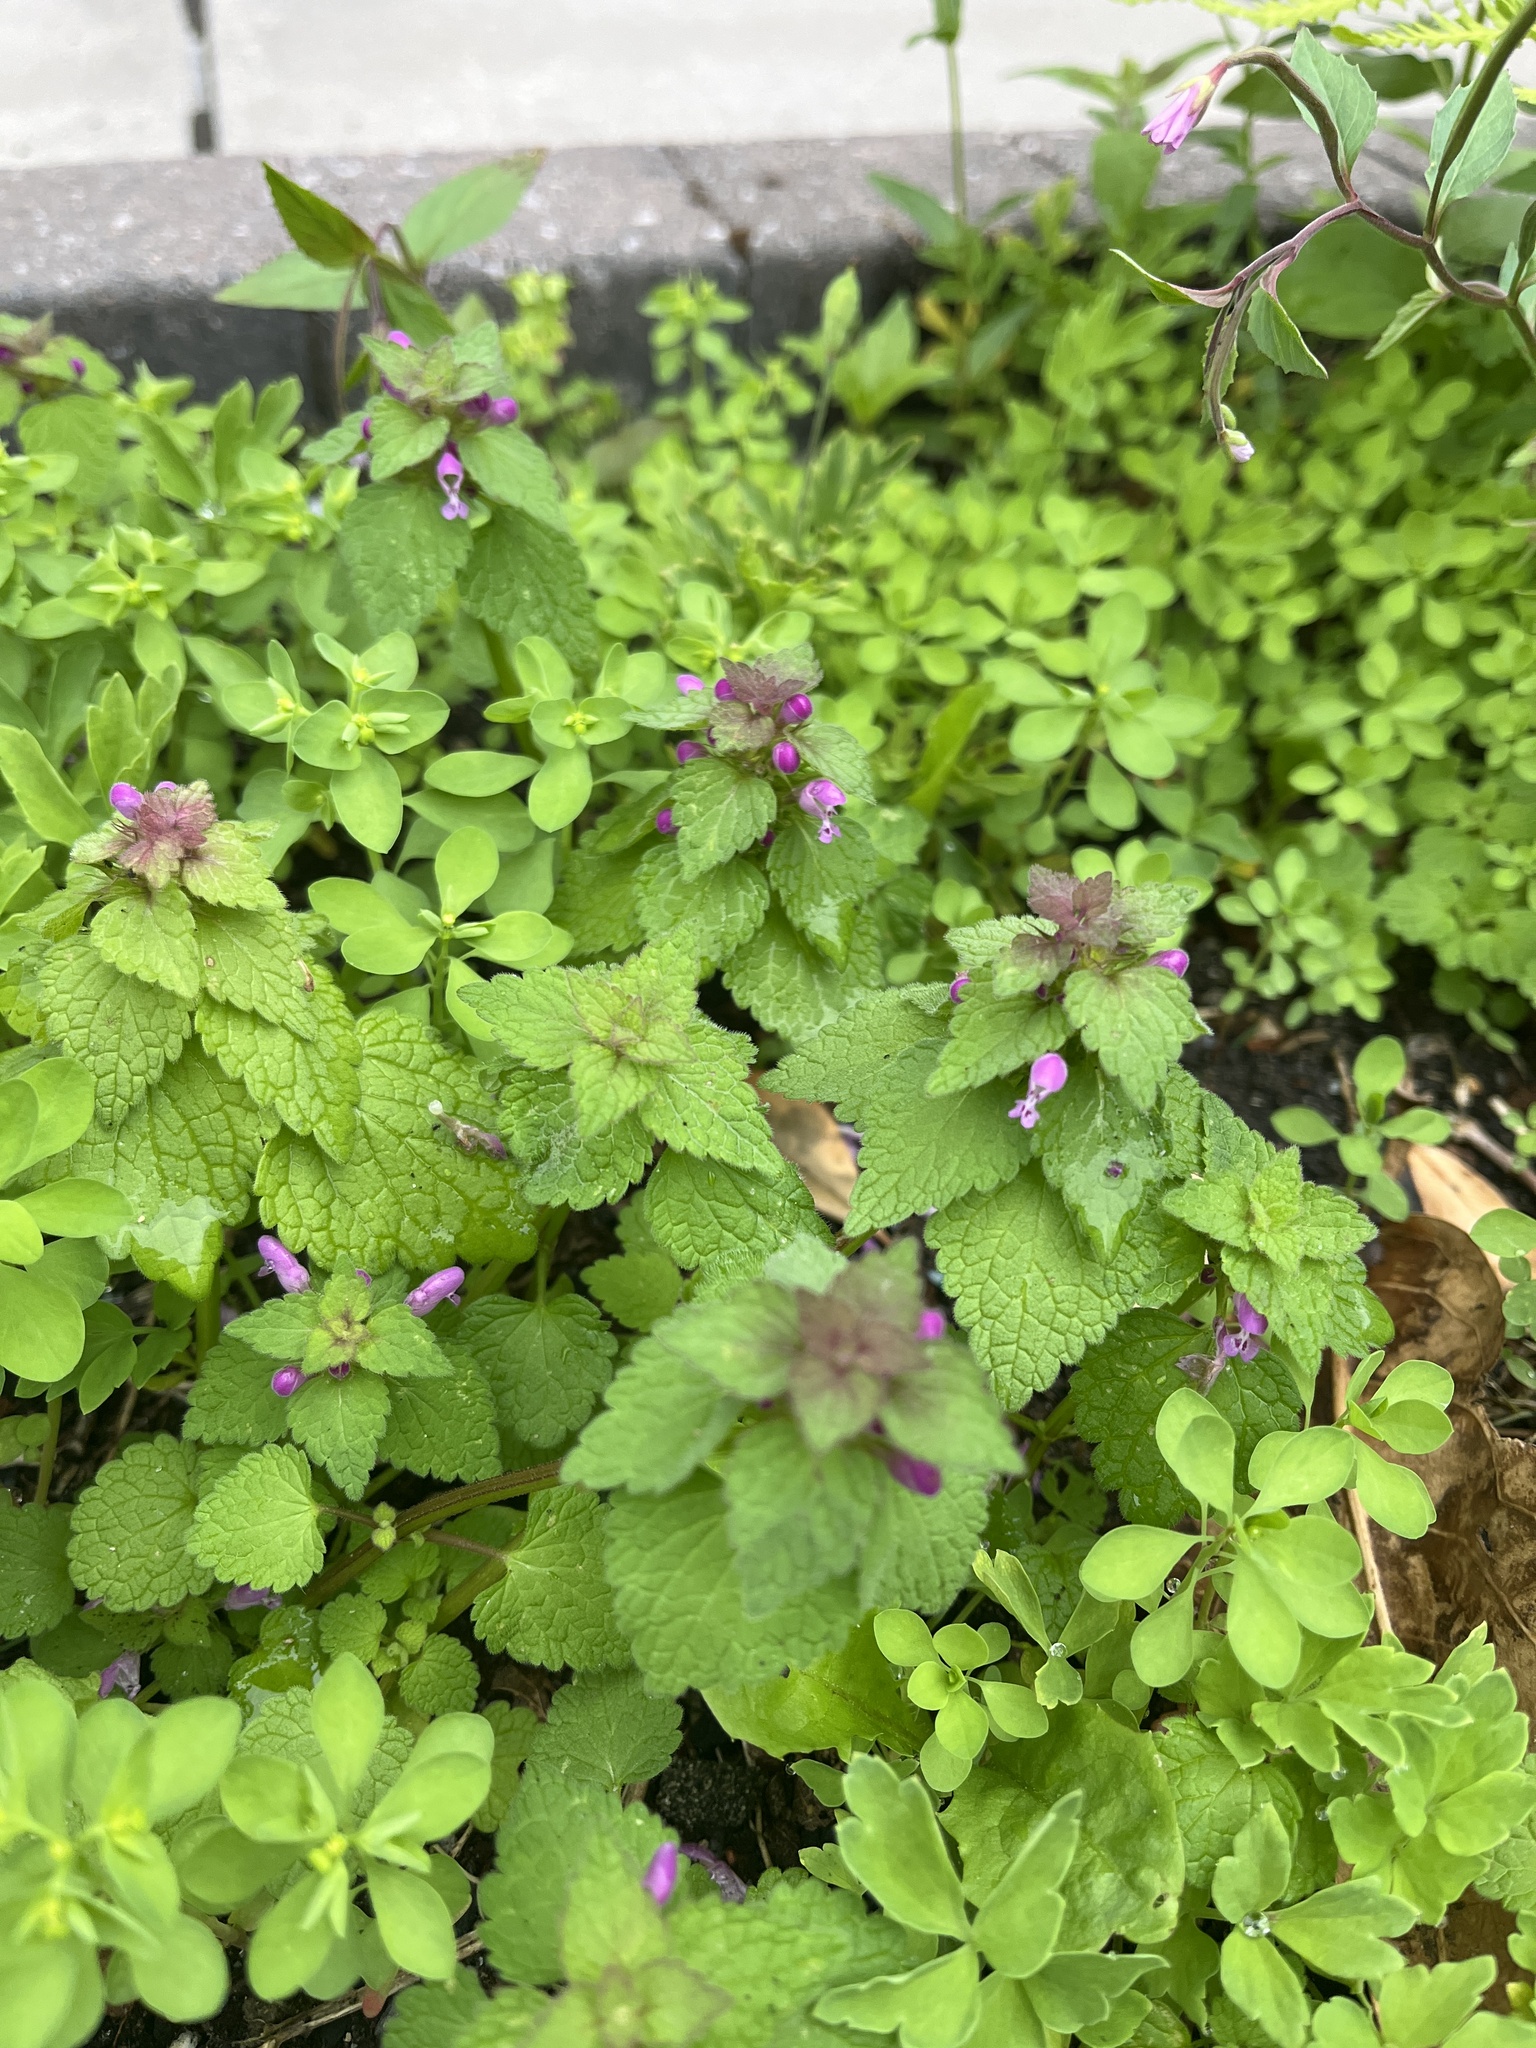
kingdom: Plantae
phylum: Tracheophyta
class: Magnoliopsida
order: Lamiales
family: Lamiaceae
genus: Lamium
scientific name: Lamium purpureum
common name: Red dead-nettle
